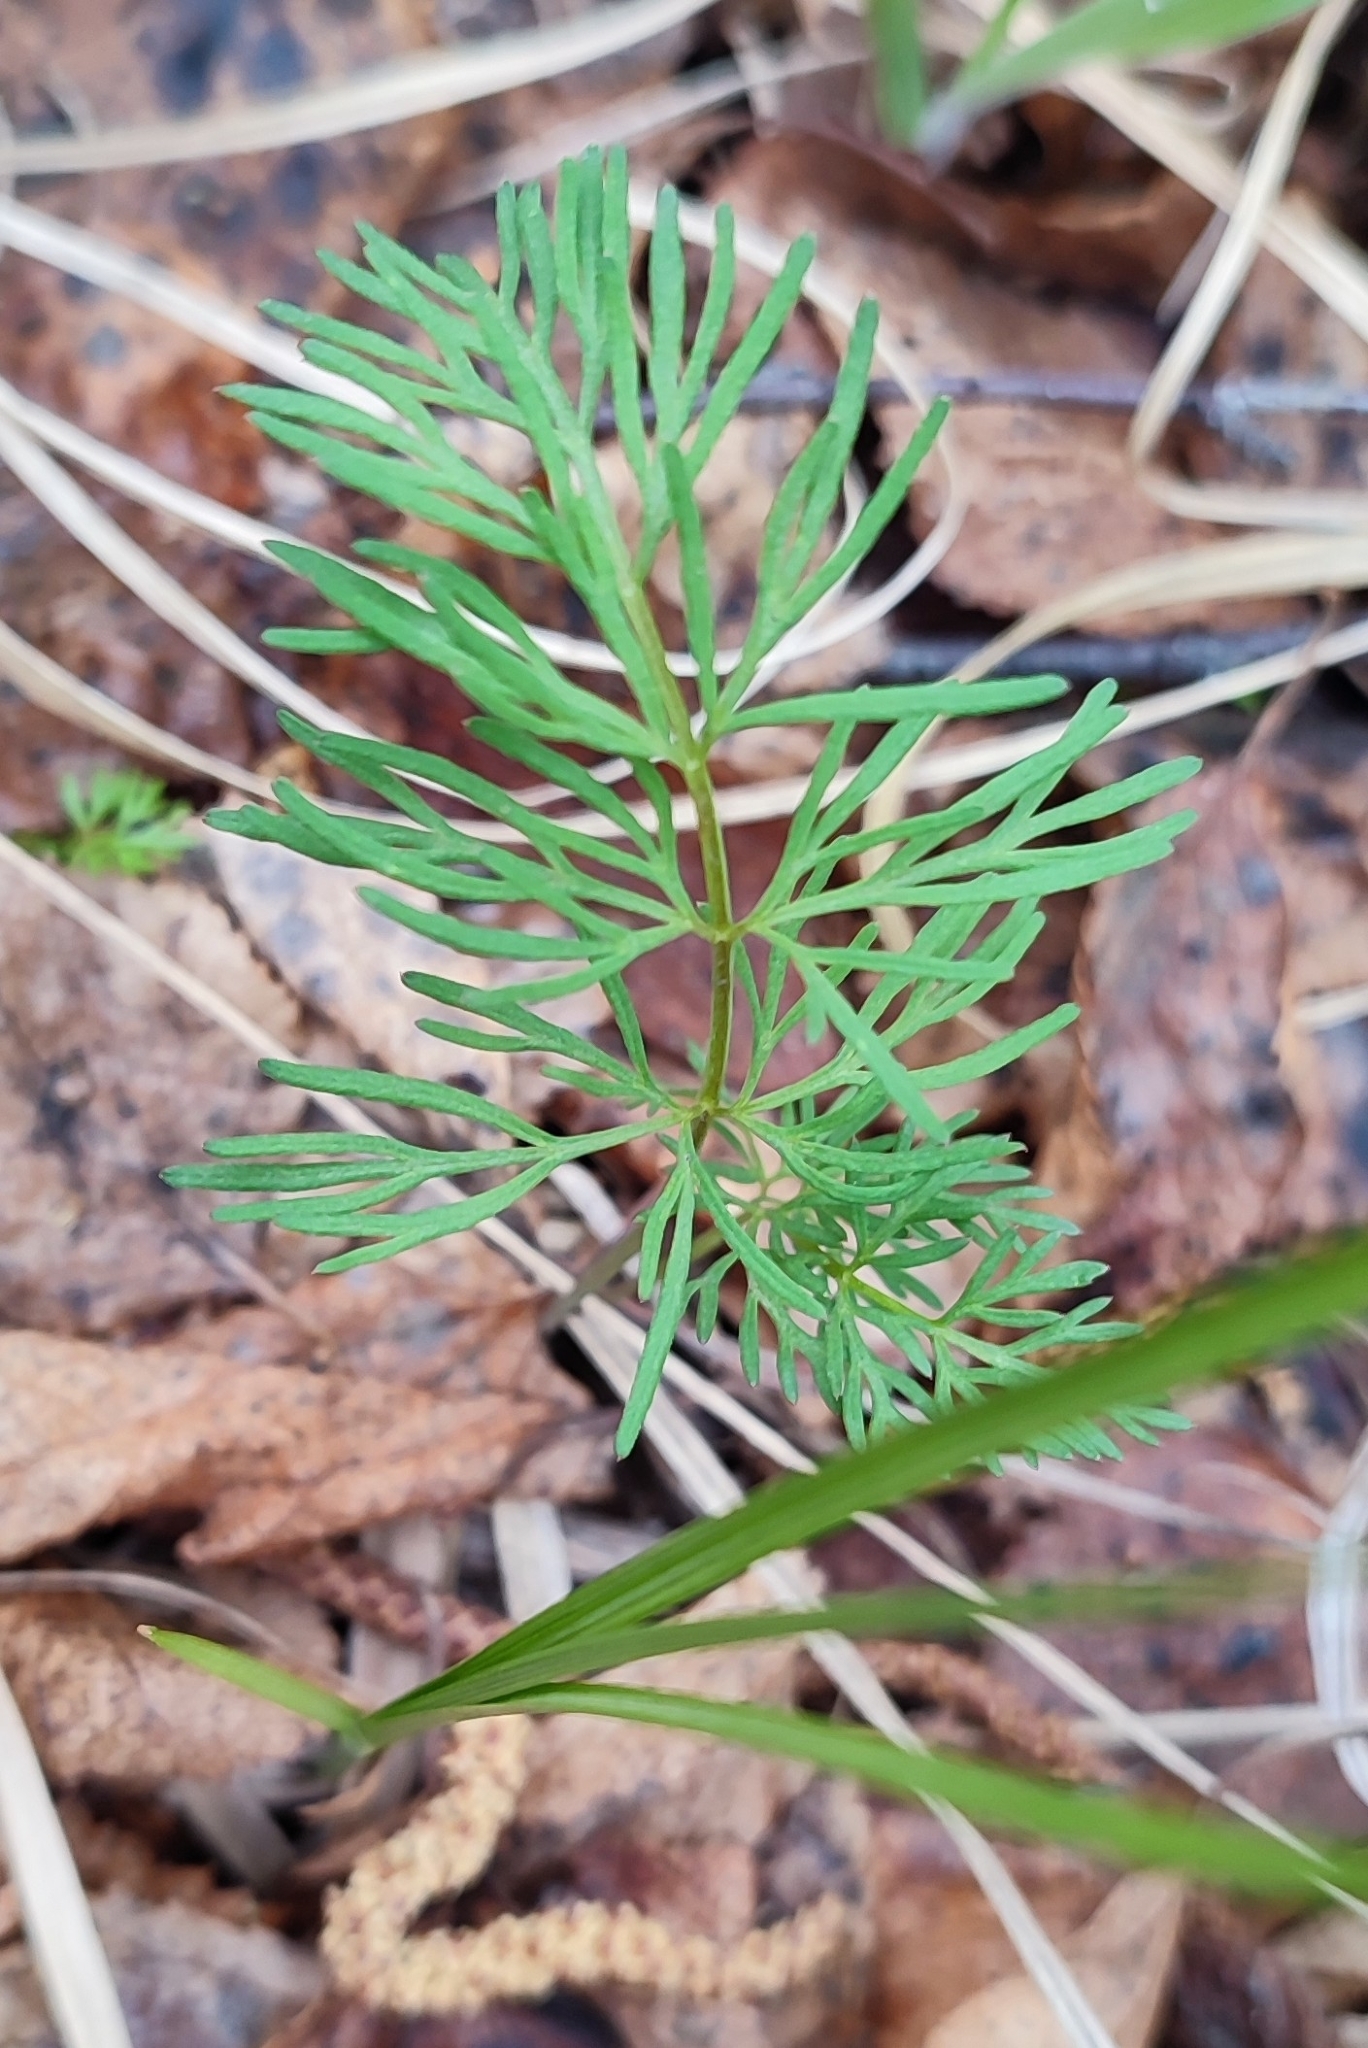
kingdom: Plantae
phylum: Tracheophyta
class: Magnoliopsida
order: Apiales
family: Apiaceae
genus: Kadenia
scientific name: Kadenia dubia
